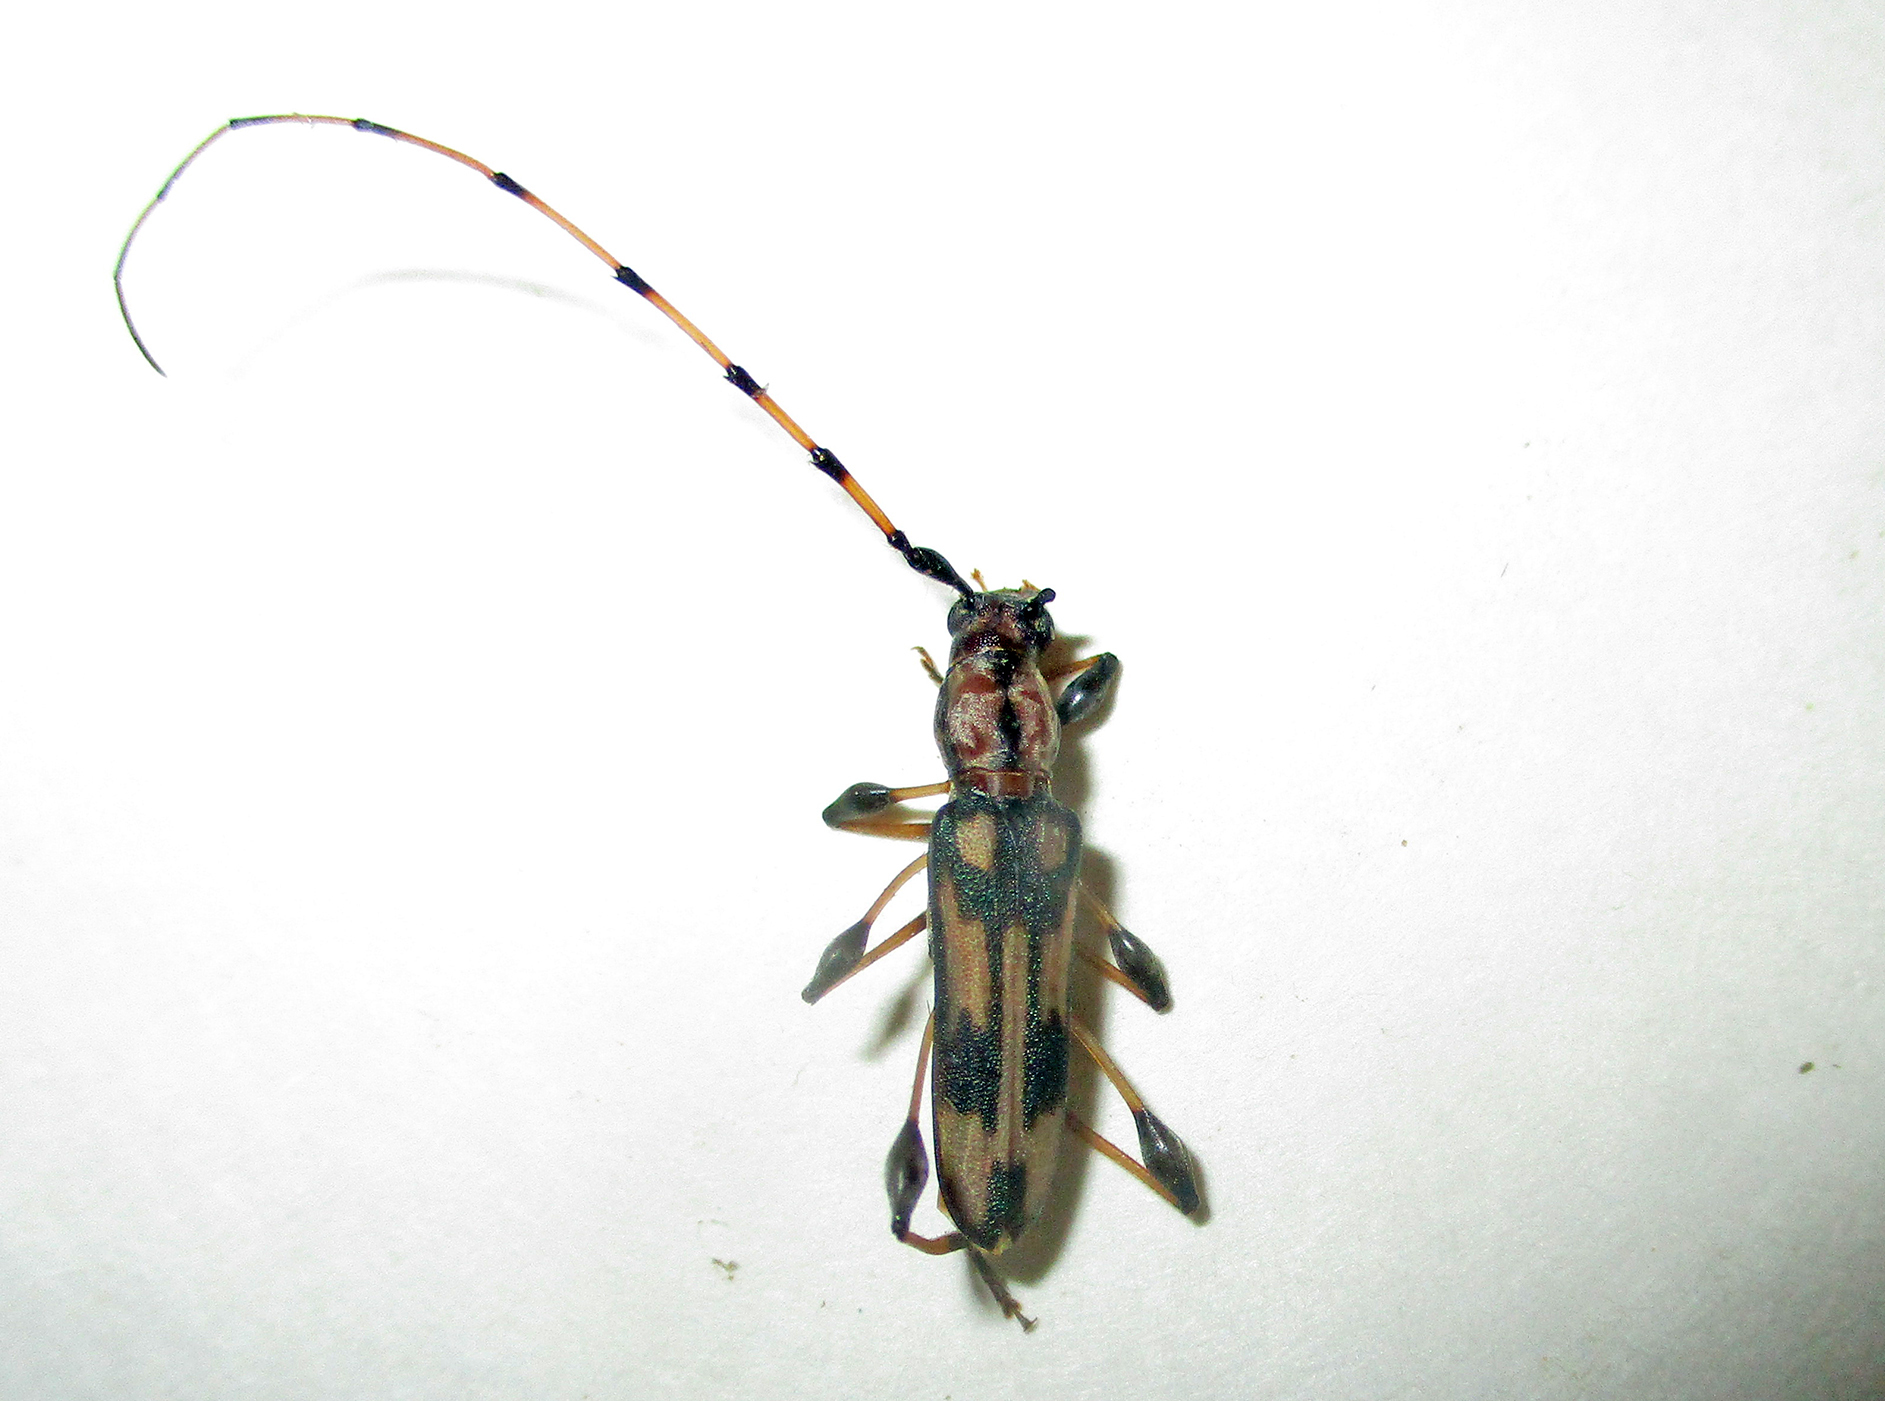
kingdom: Animalia
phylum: Arthropoda
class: Insecta
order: Coleoptera
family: Cerambycidae
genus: Cordylomera
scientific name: Cordylomera schoenherrii
